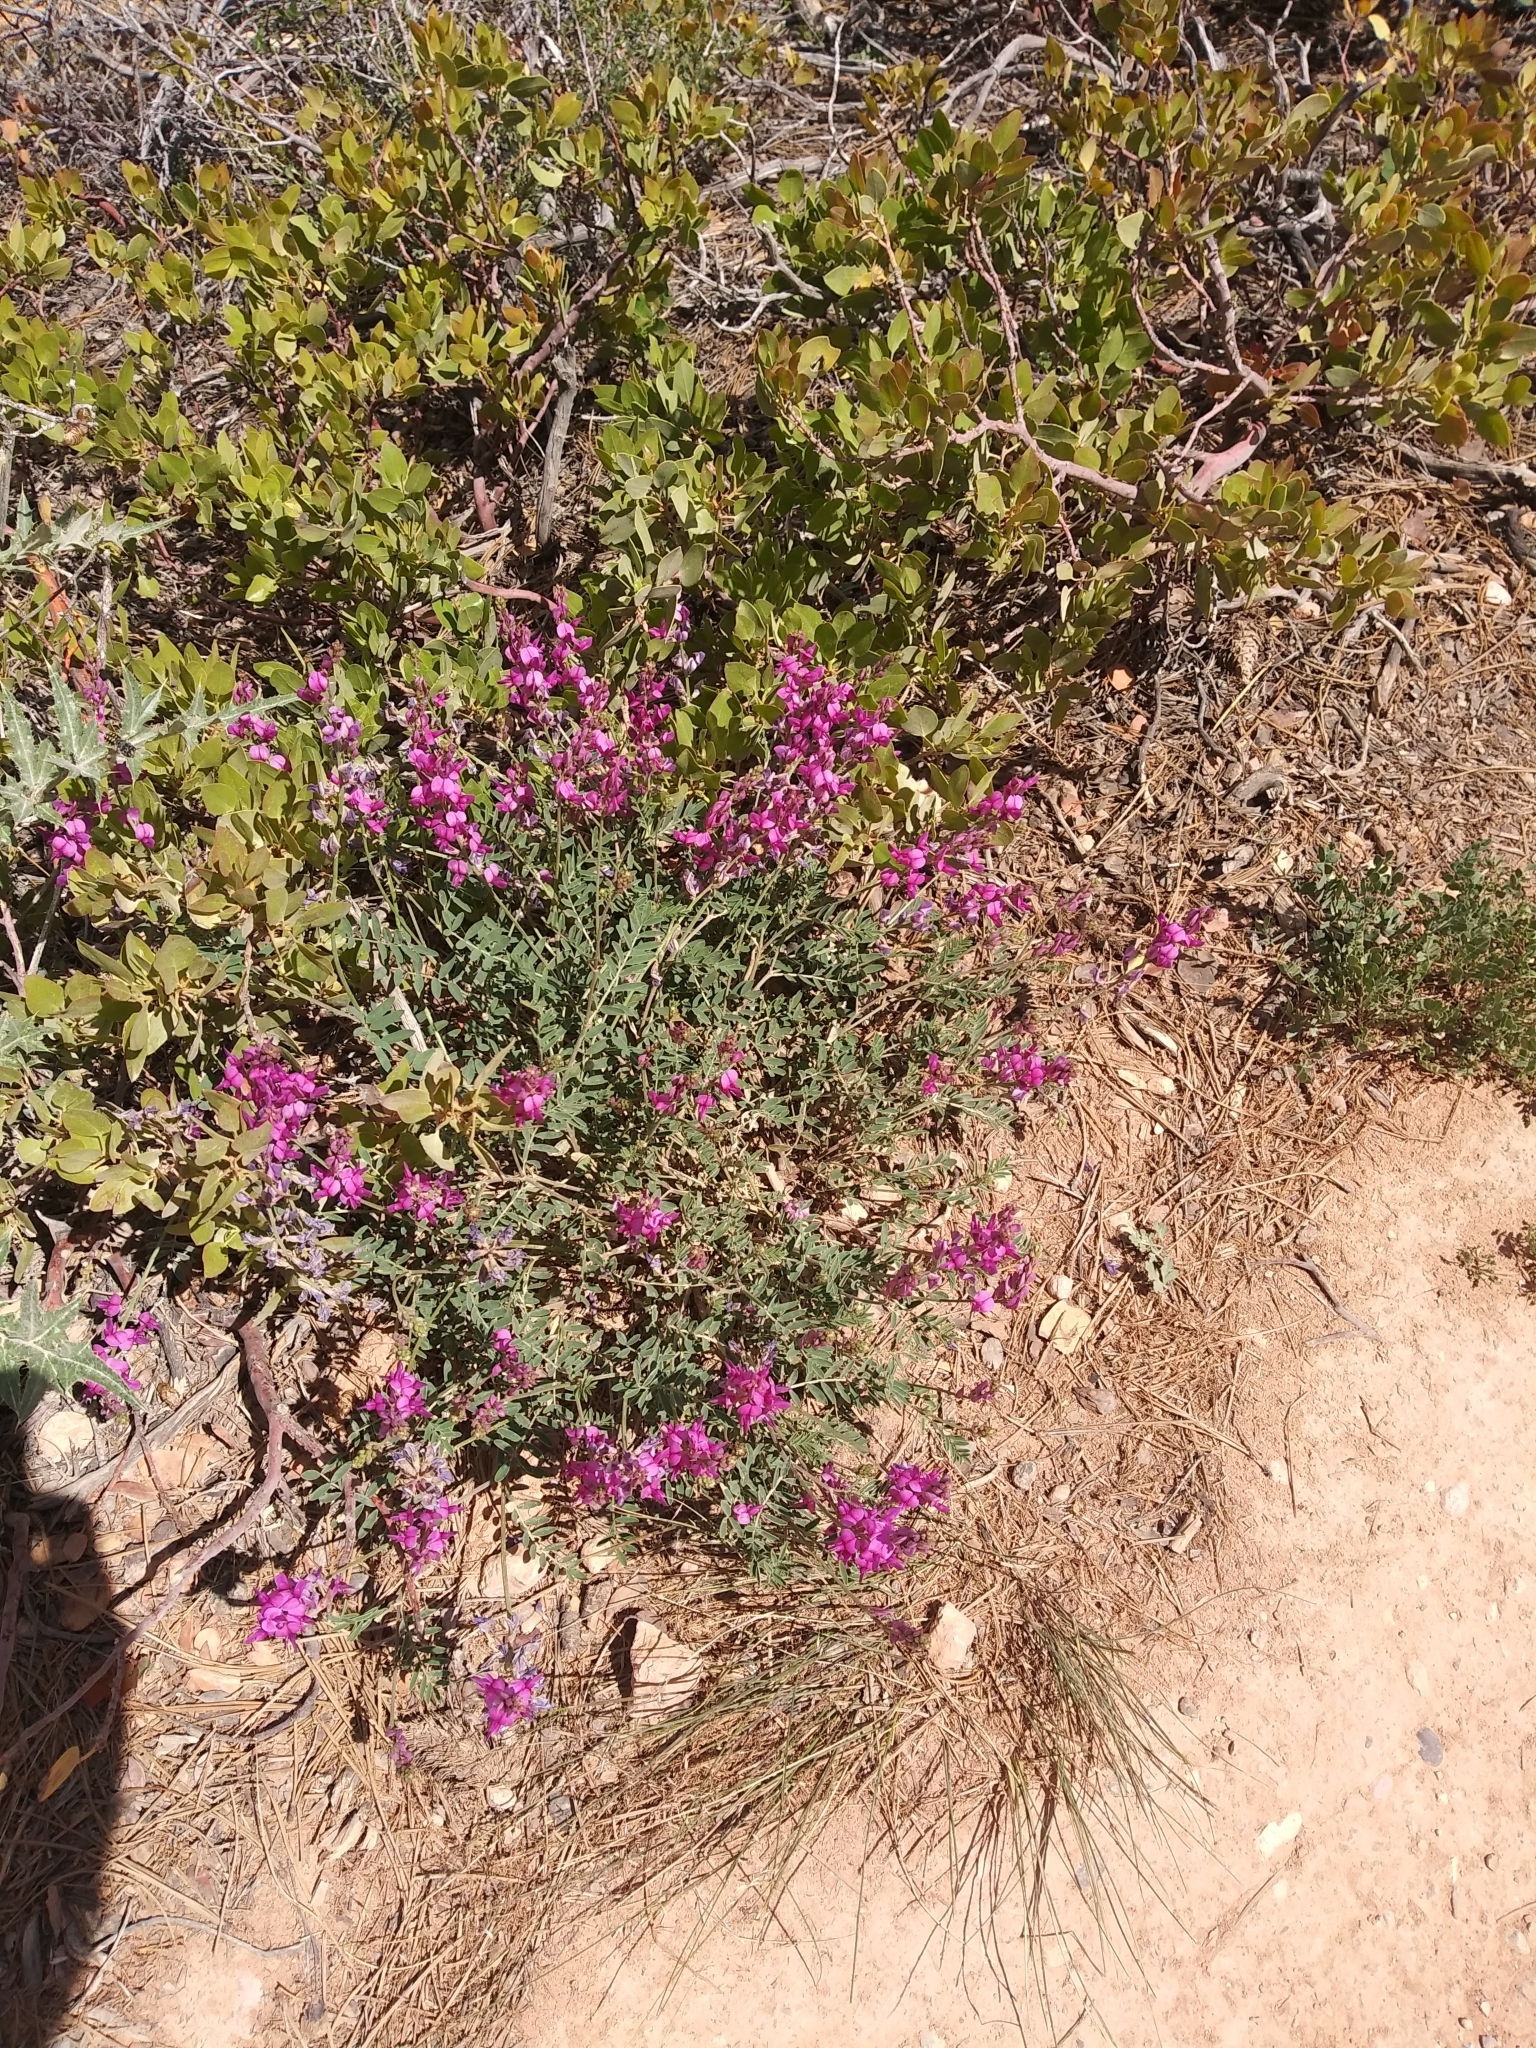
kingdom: Plantae
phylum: Tracheophyta
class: Magnoliopsida
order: Fabales
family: Fabaceae
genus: Hedysarum
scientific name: Hedysarum boreale
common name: Northern sweet-vetch
